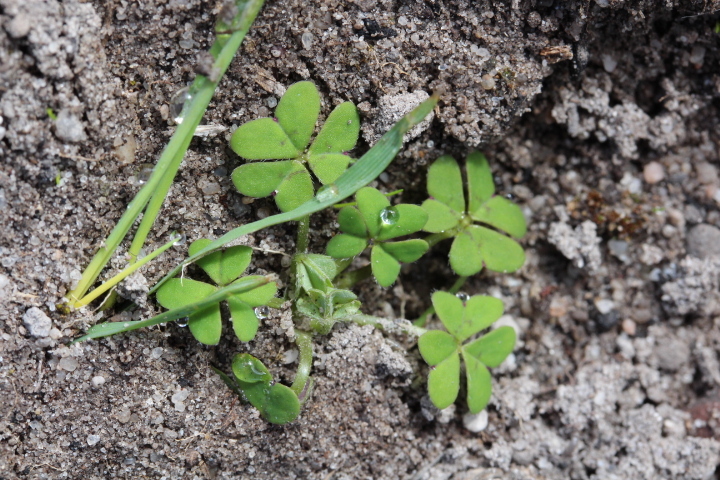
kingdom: Plantae
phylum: Tracheophyta
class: Magnoliopsida
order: Oxalidales
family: Oxalidaceae
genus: Oxalis
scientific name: Oxalis pes-caprae
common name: Bermuda-buttercup
